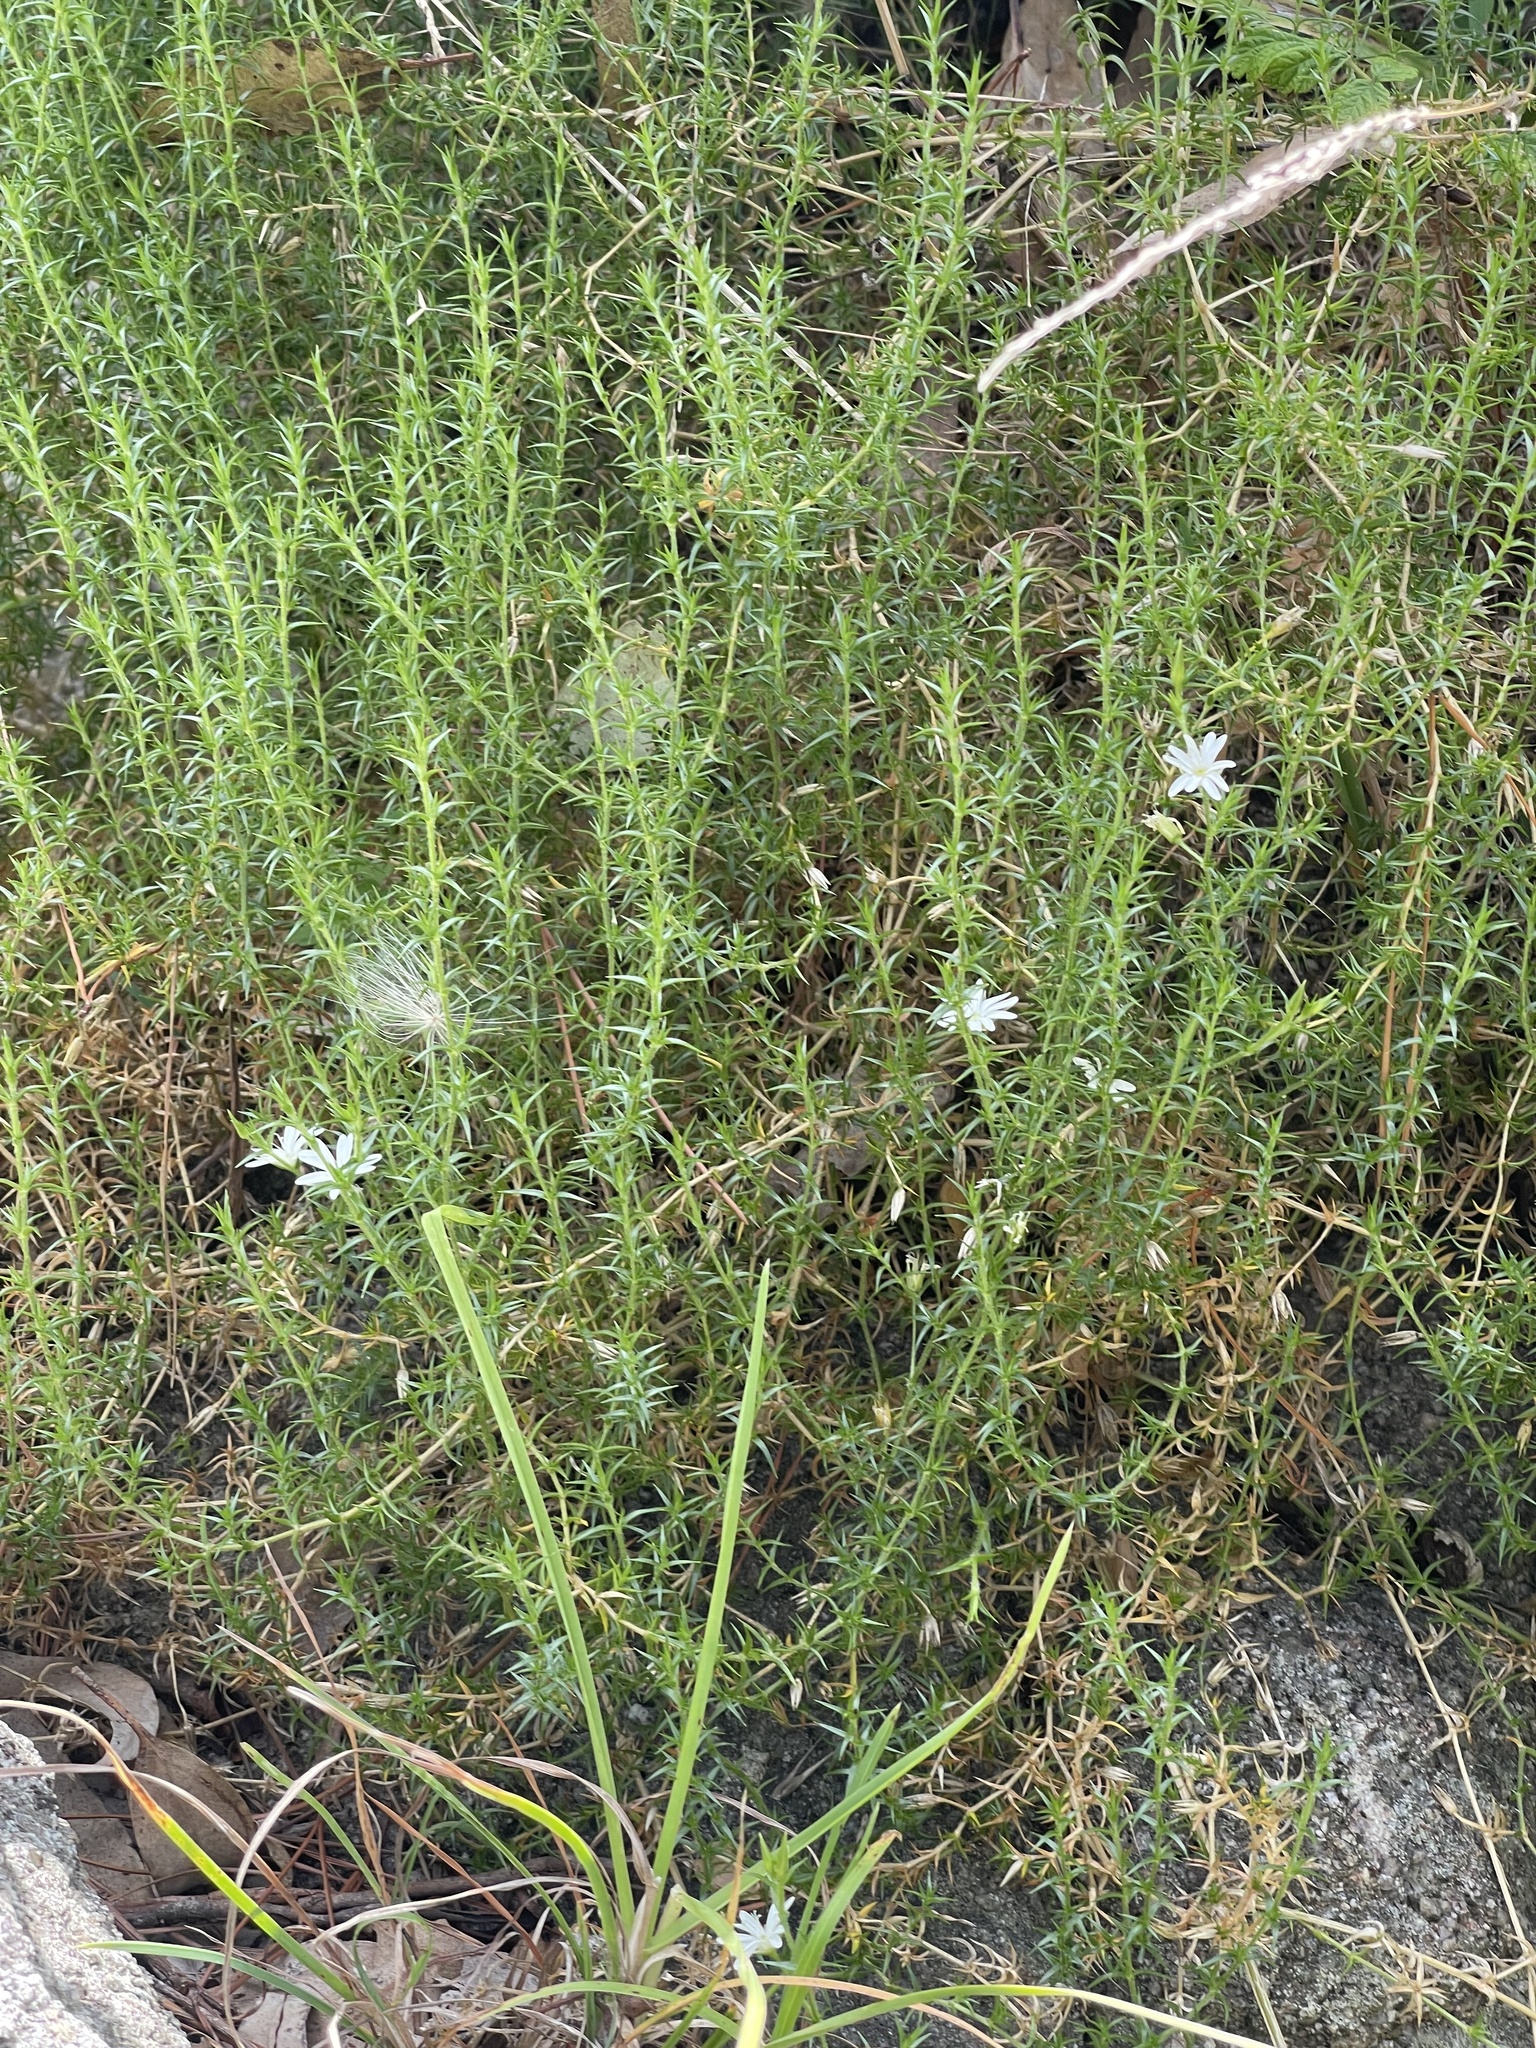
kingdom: Plantae
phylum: Tracheophyta
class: Magnoliopsida
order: Caryophyllales
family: Caryophyllaceae
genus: Stellaria
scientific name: Stellaria pungens
